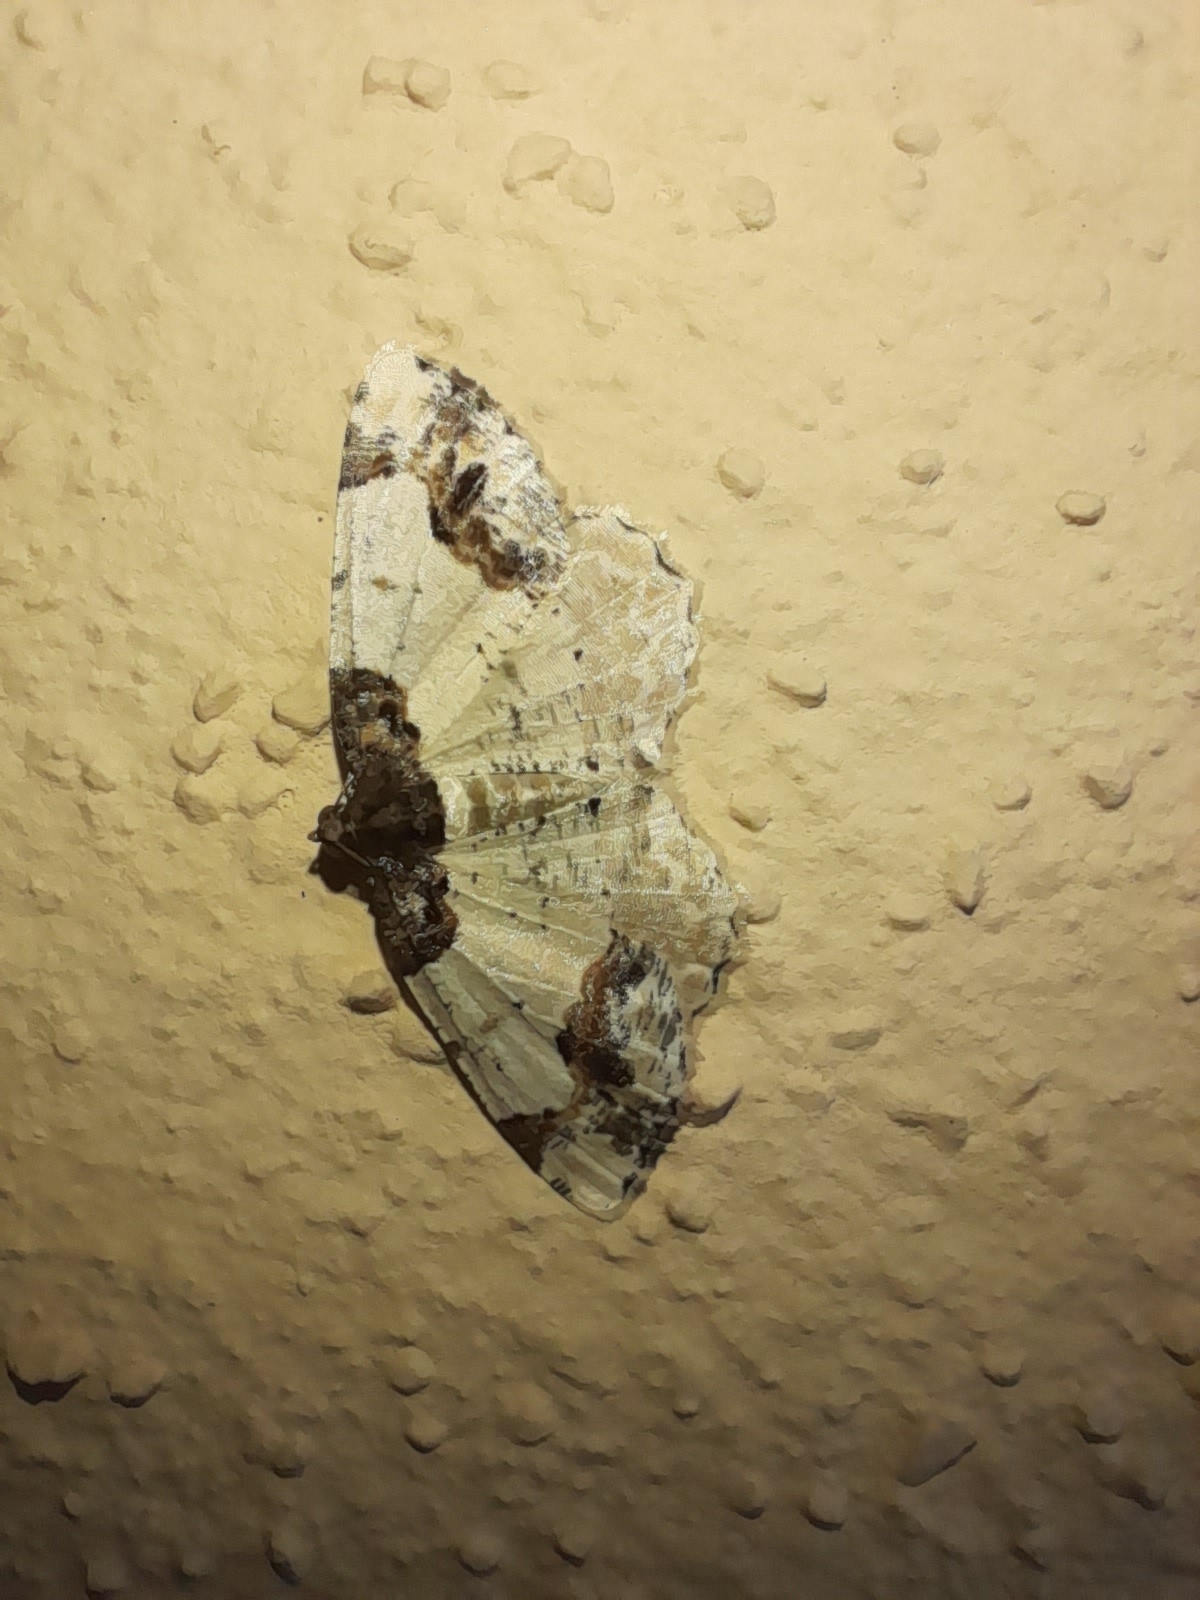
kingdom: Animalia
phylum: Arthropoda
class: Insecta
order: Lepidoptera
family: Geometridae
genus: Ligdia
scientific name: Ligdia adustata
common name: Scorched carpet
